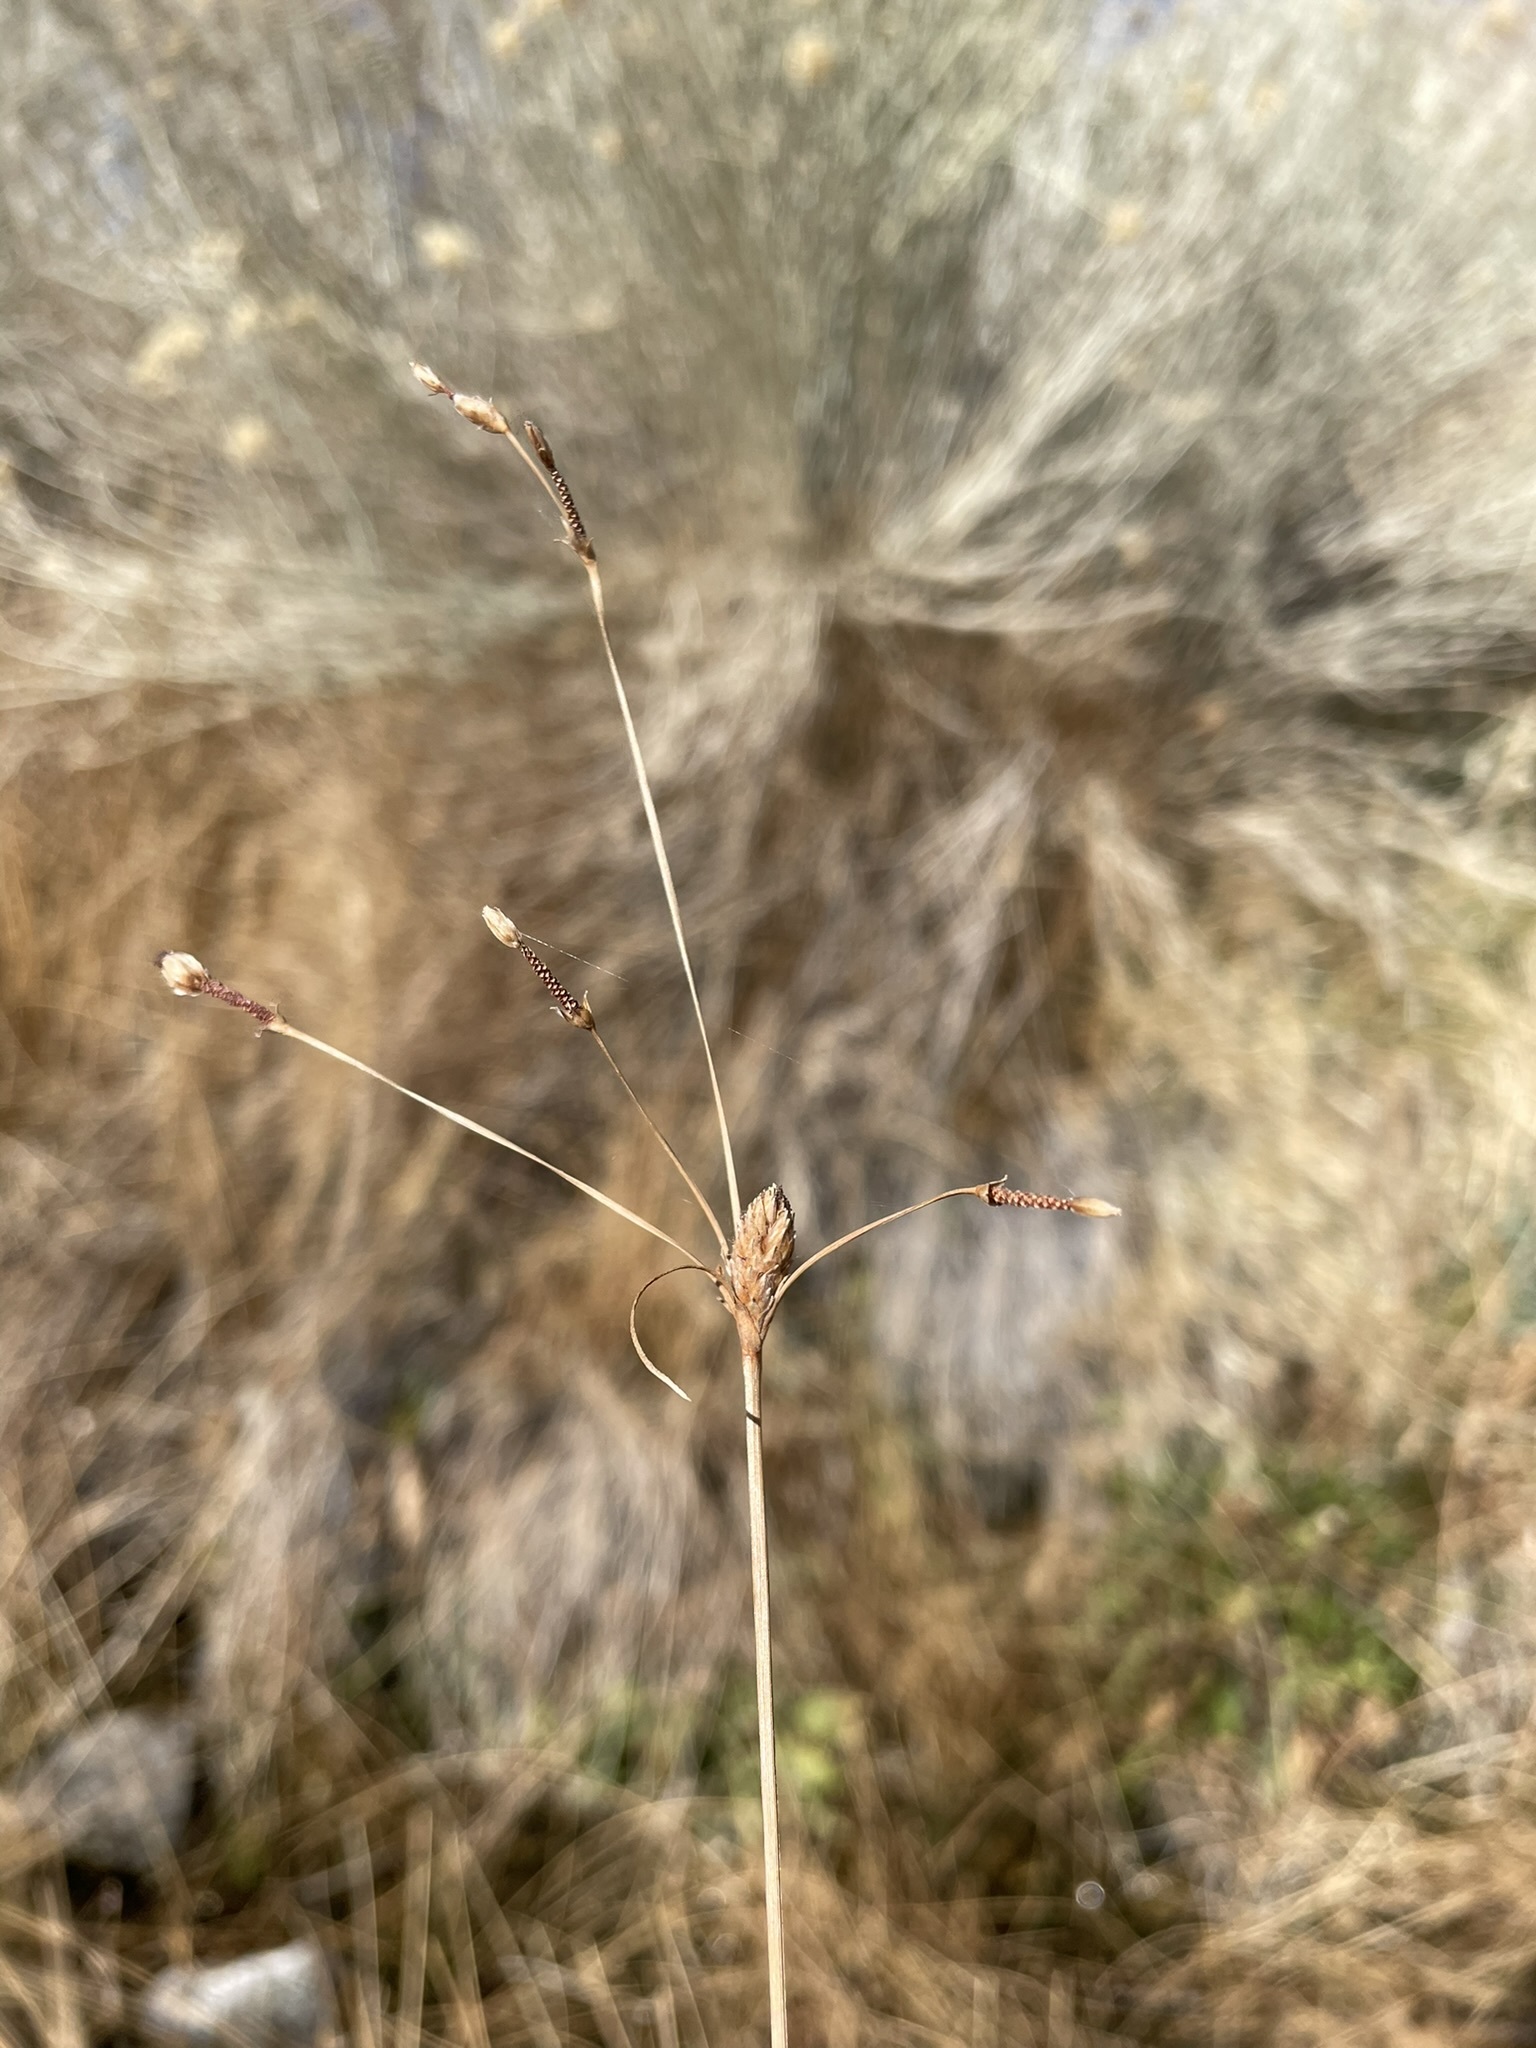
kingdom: Plantae
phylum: Tracheophyta
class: Liliopsida
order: Poales
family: Cyperaceae
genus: Fimbristylis
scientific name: Fimbristylis thermalis
